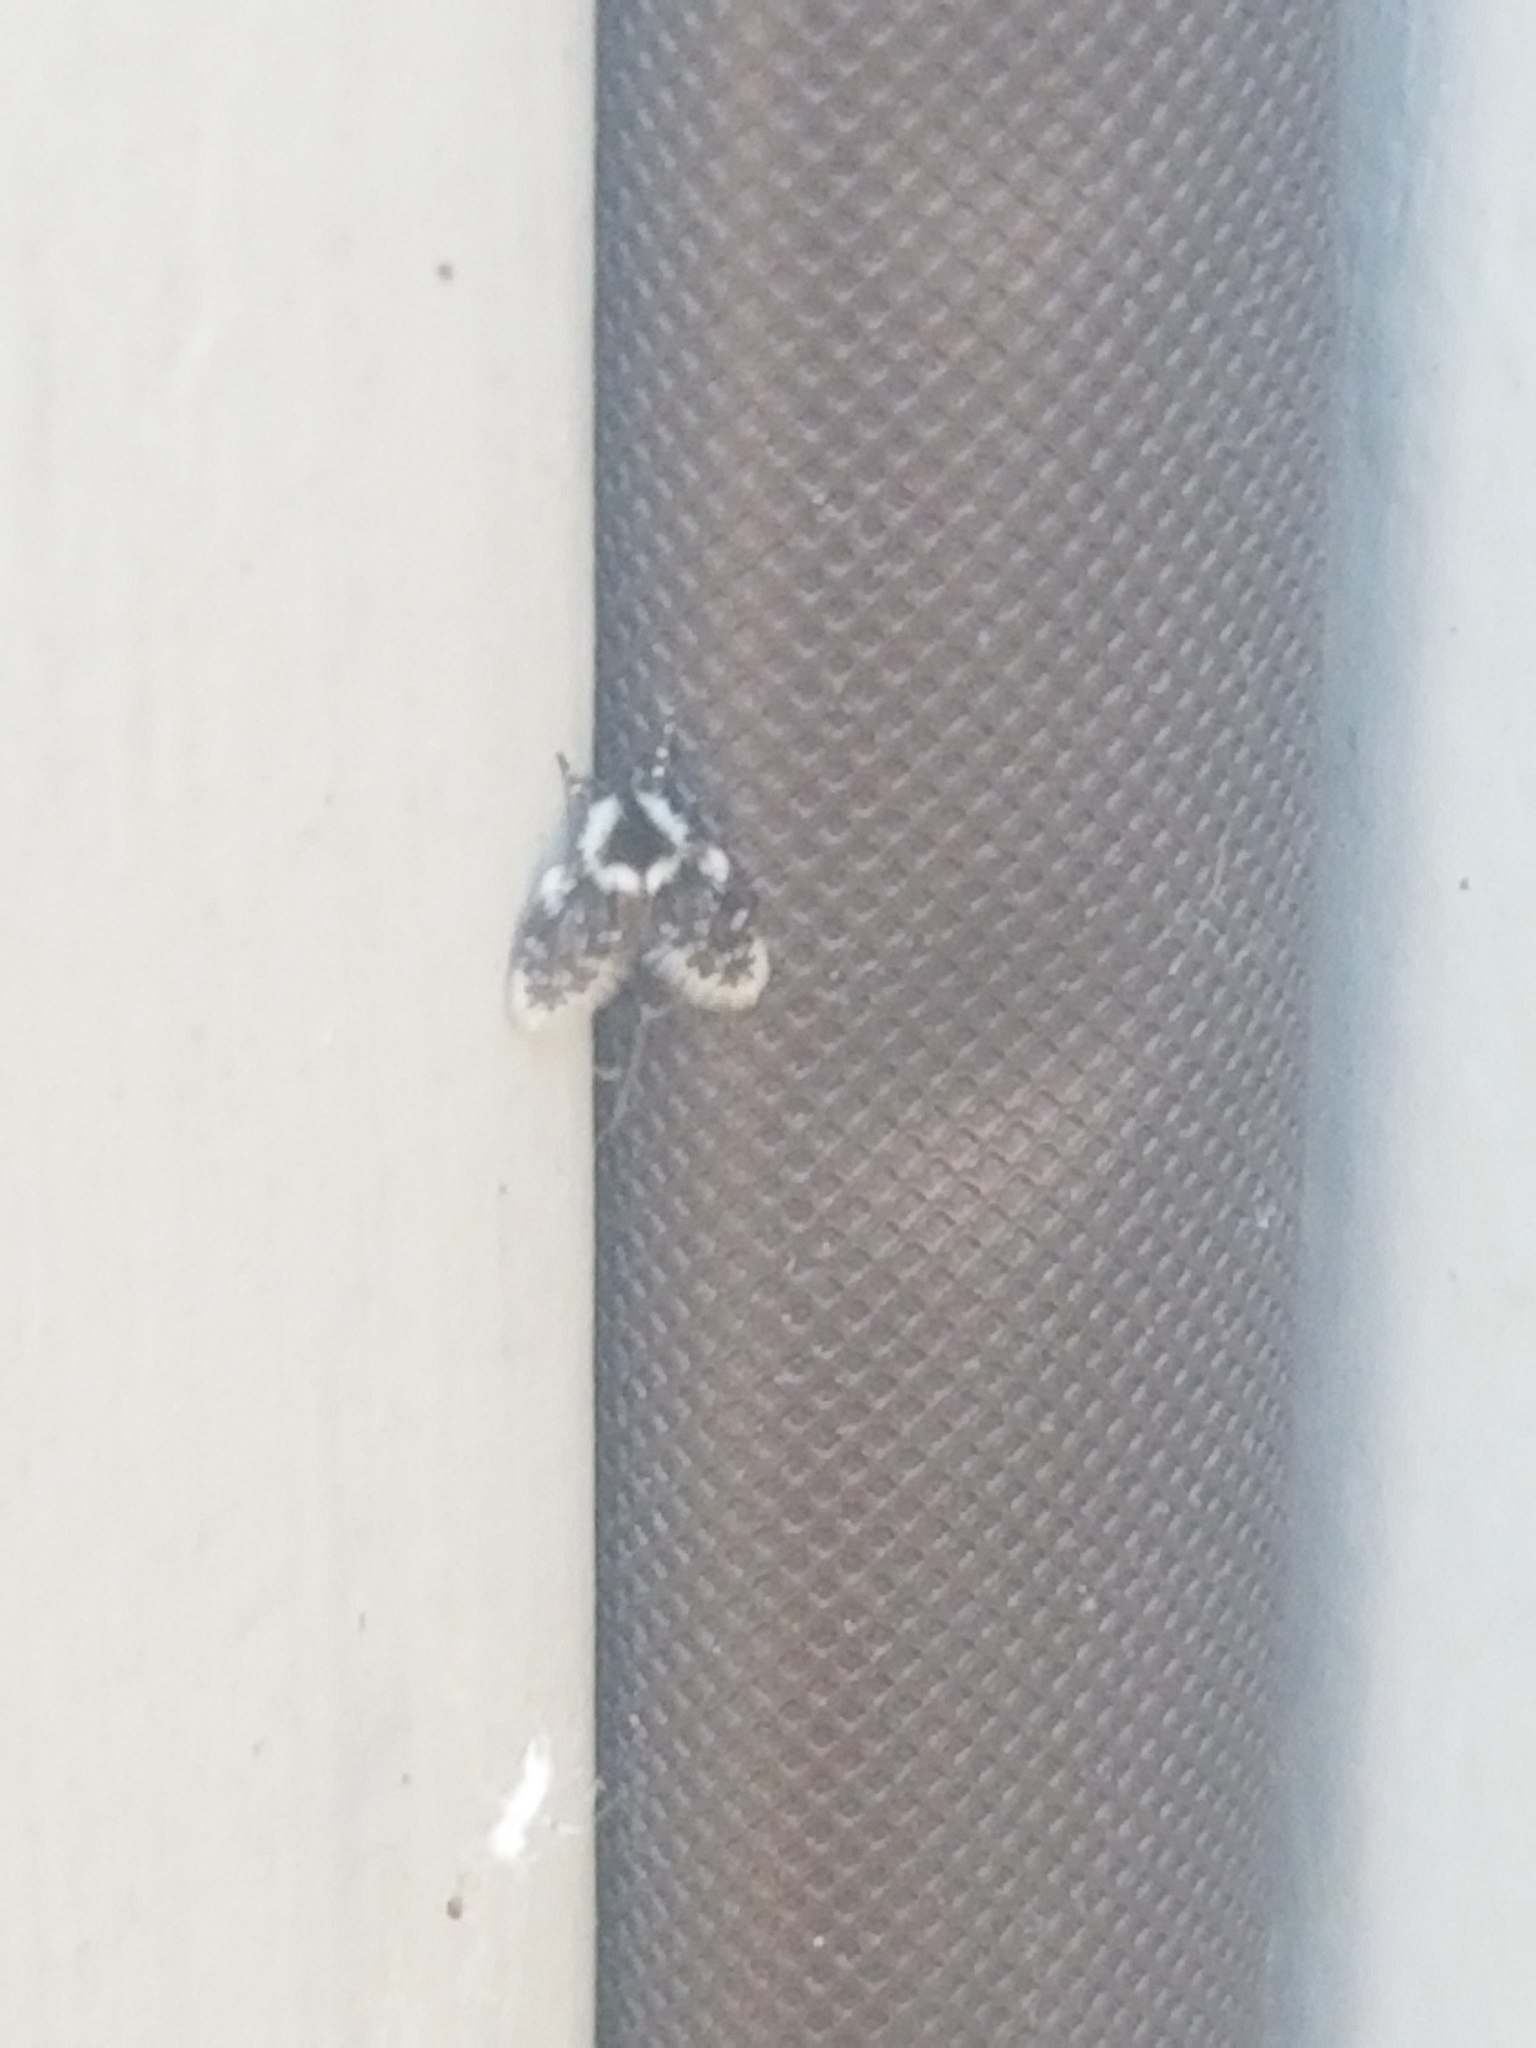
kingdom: Animalia
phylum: Arthropoda
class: Insecta
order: Diptera
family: Psychodidae
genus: Lepiseodina
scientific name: Lepiseodina
